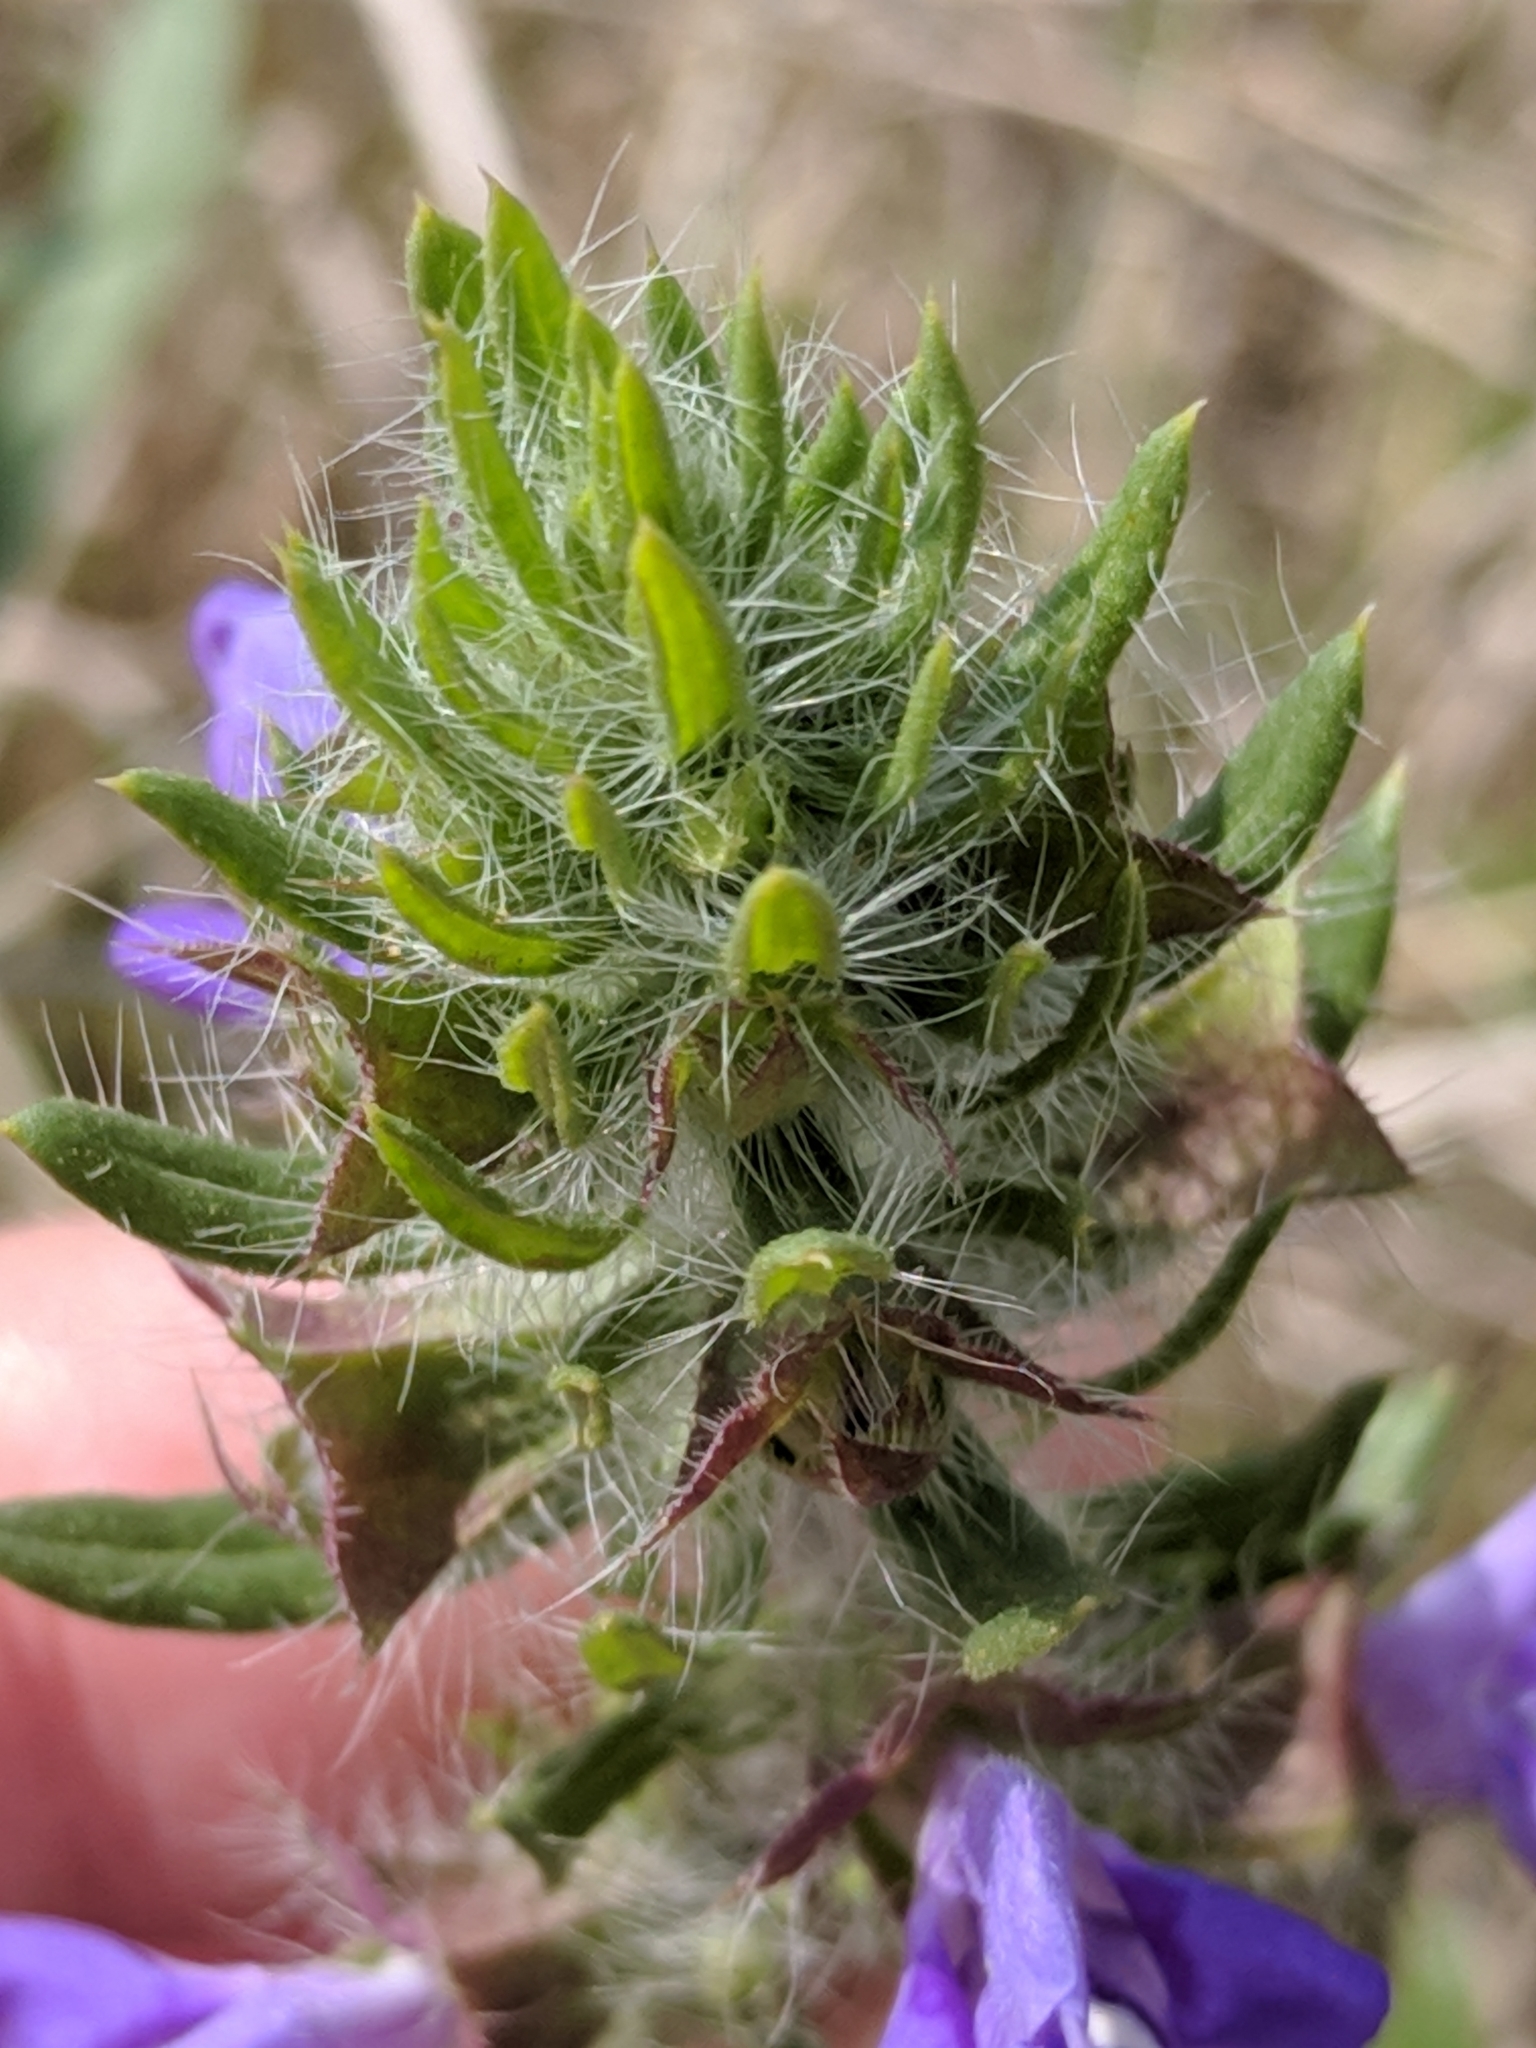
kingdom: Plantae
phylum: Tracheophyta
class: Magnoliopsida
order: Lamiales
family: Lamiaceae
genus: Salvia
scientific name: Salvia texana
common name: Texas sage
